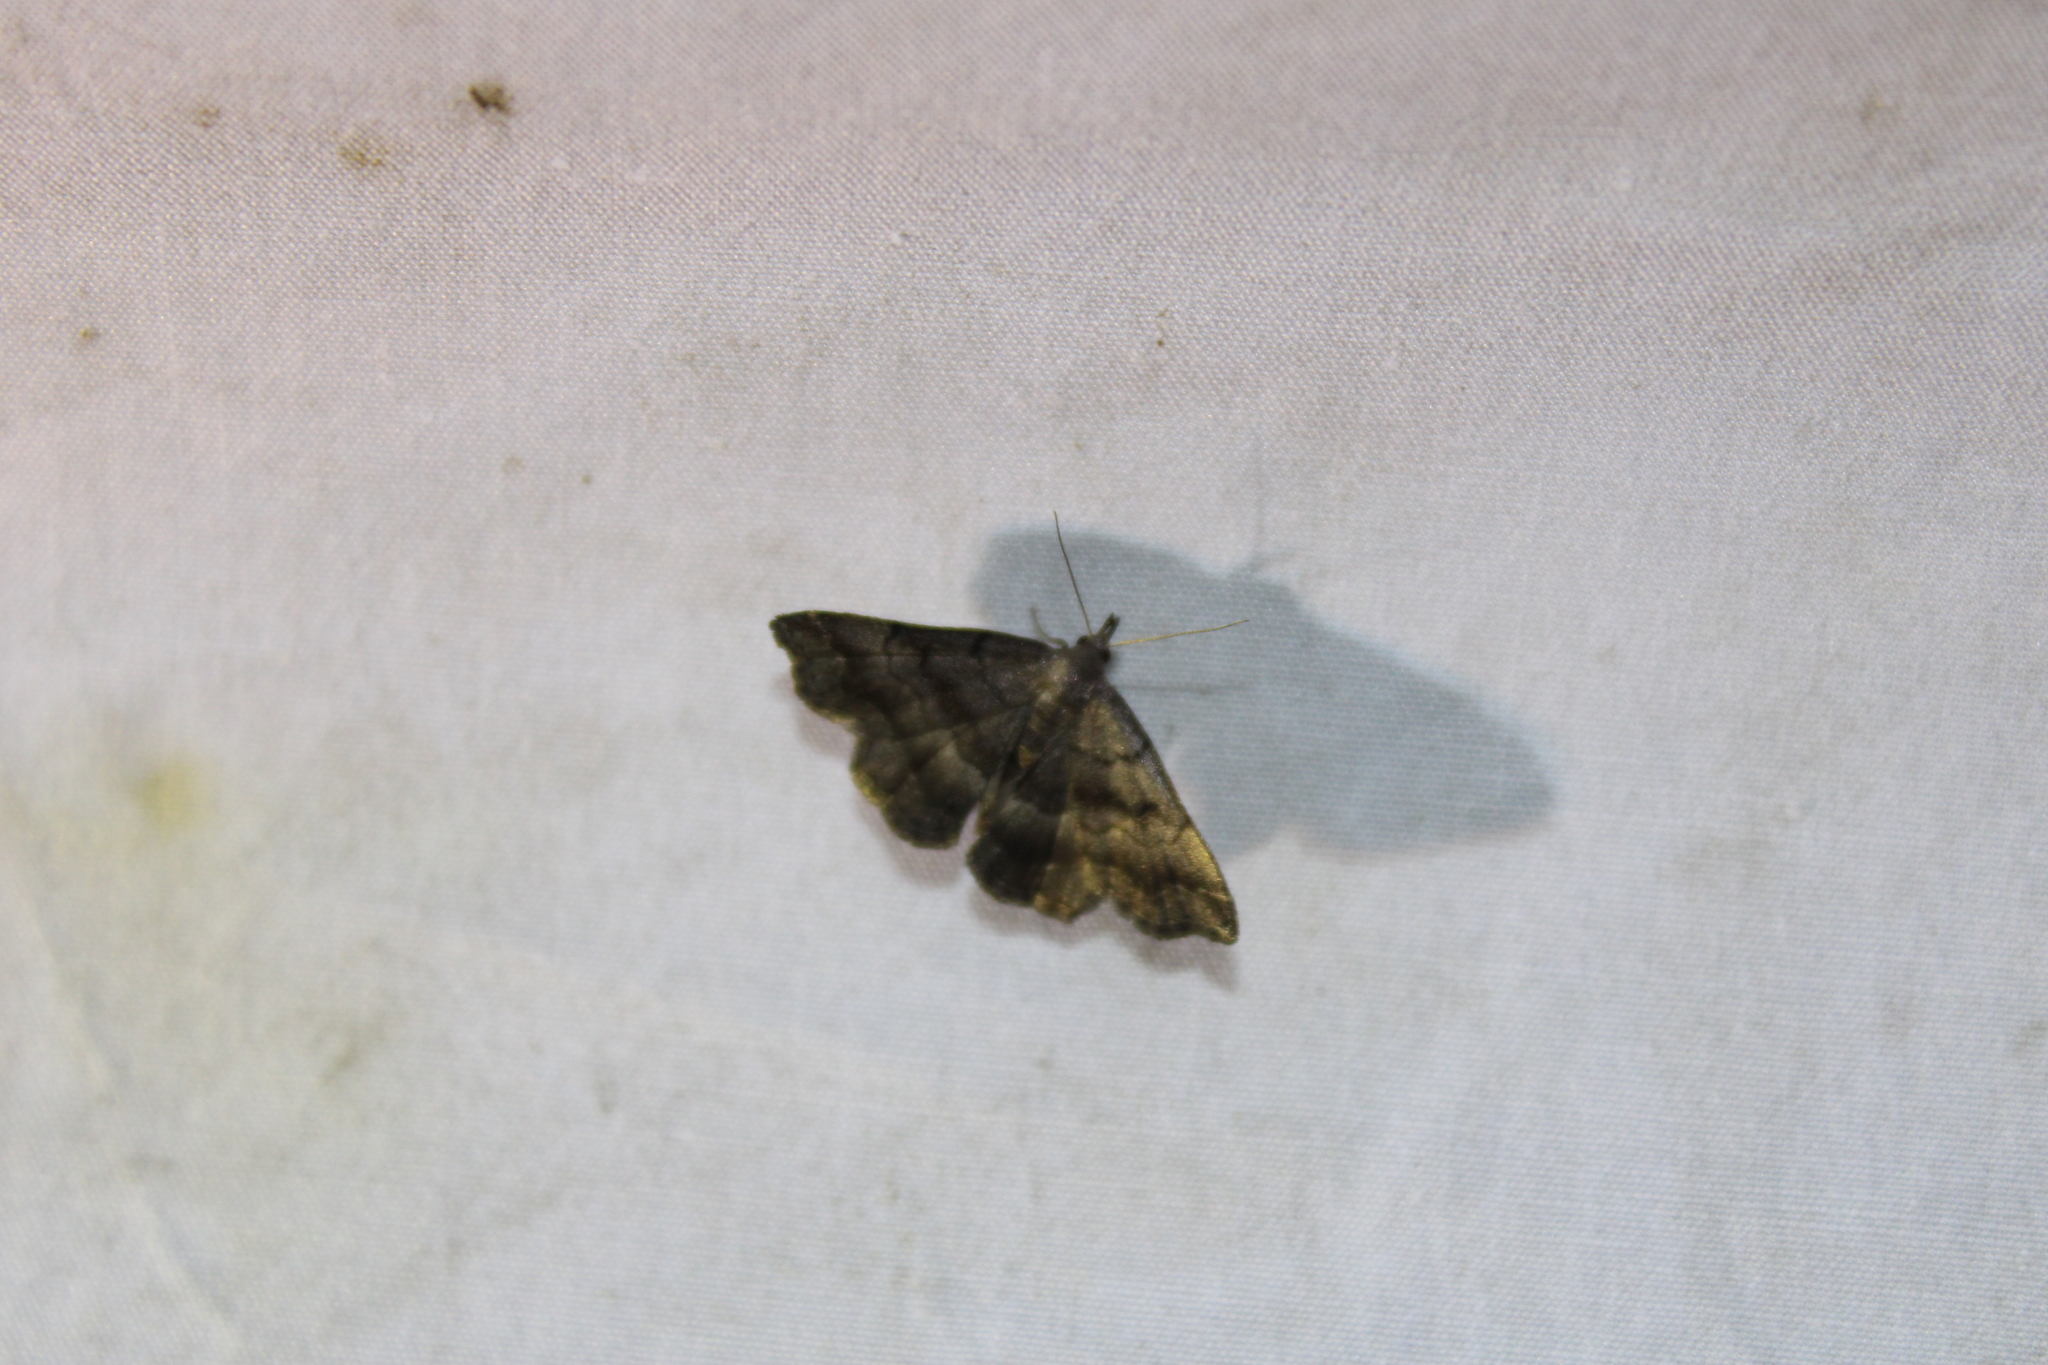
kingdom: Animalia
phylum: Arthropoda
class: Insecta
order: Lepidoptera
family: Erebidae
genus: Phalaenostola
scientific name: Phalaenostola larentioides
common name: Black-banded owlet
